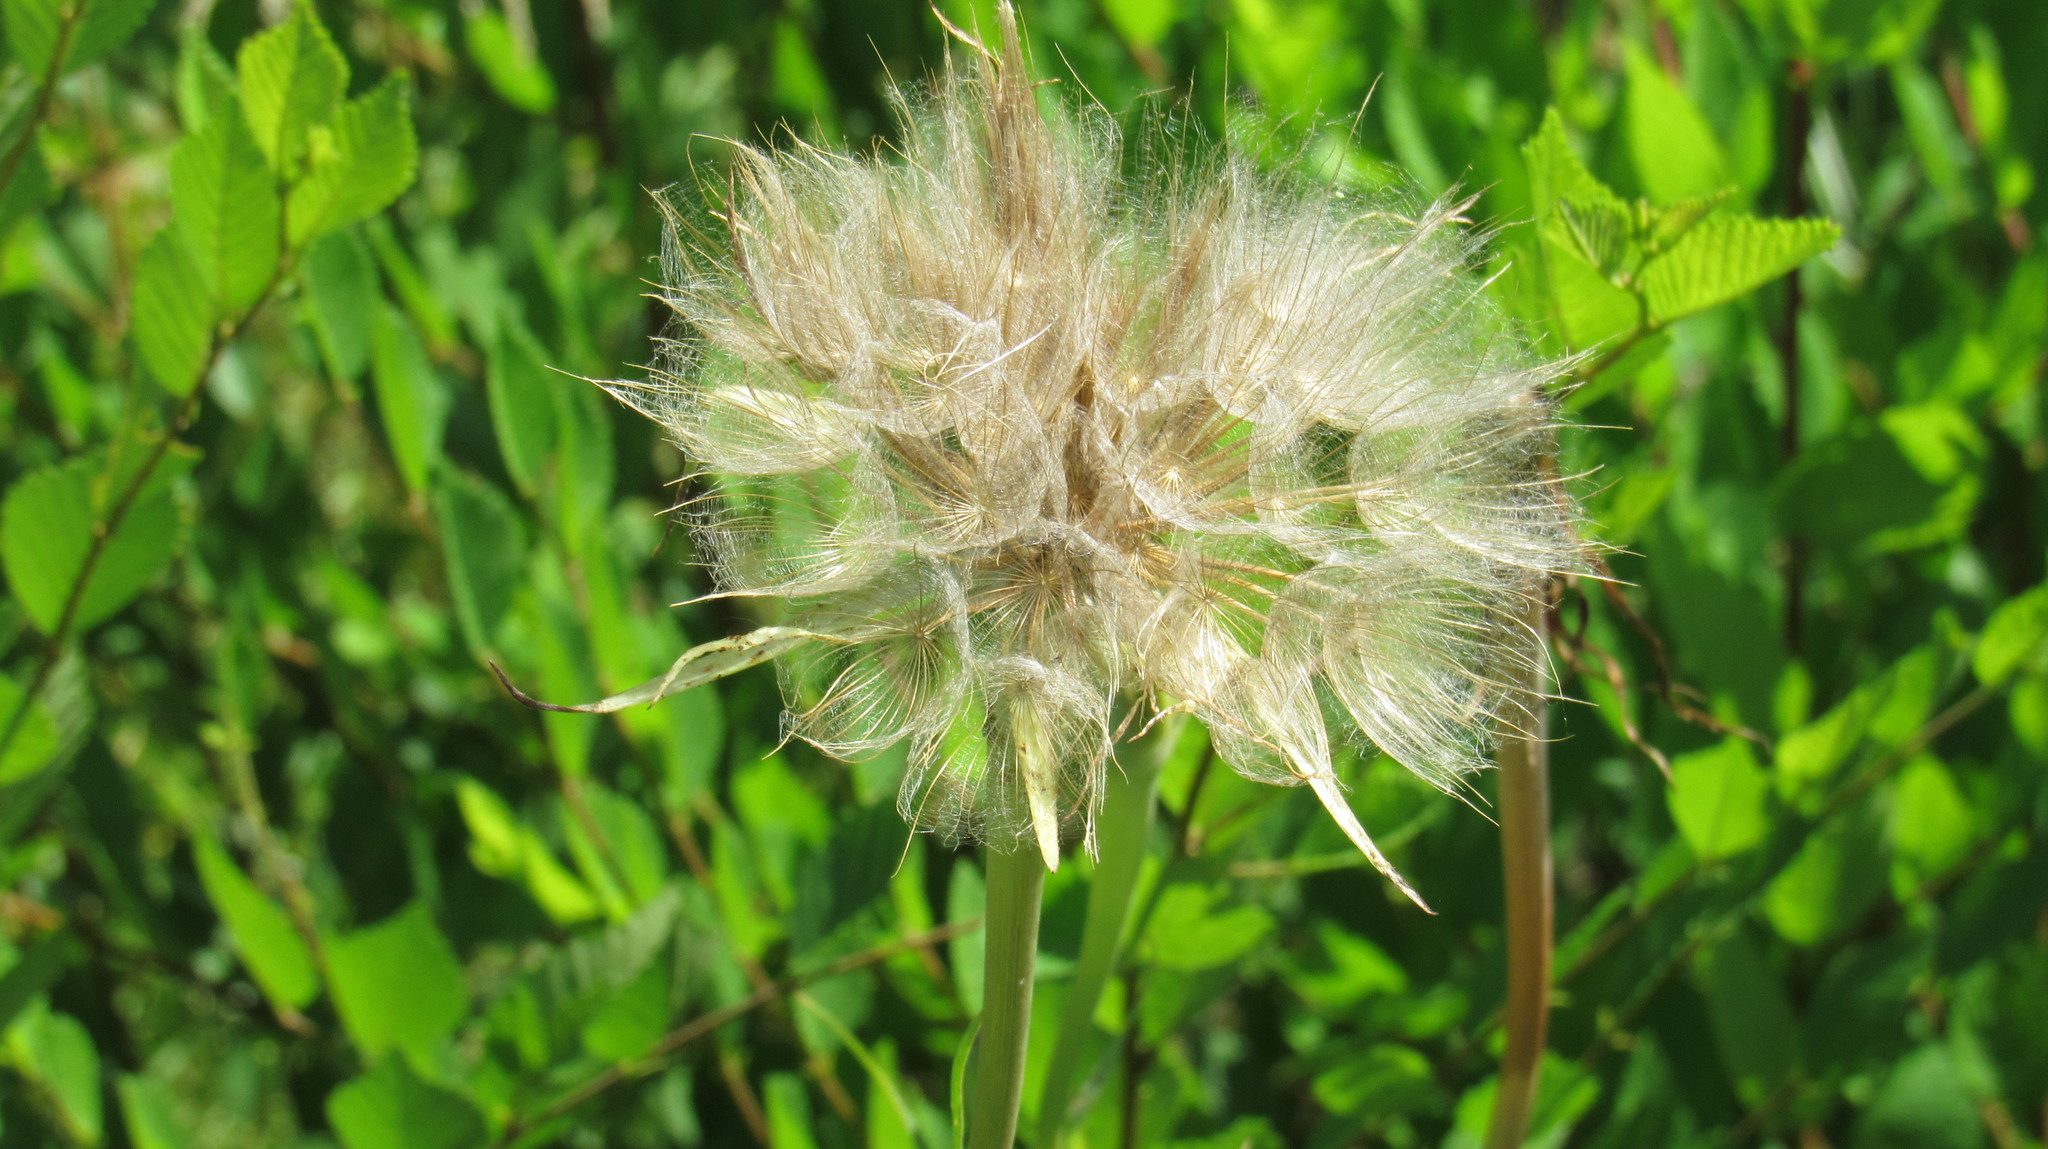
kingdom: Plantae
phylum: Tracheophyta
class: Magnoliopsida
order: Asterales
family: Asteraceae
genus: Tragopogon
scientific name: Tragopogon dubius
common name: Yellow salsify
